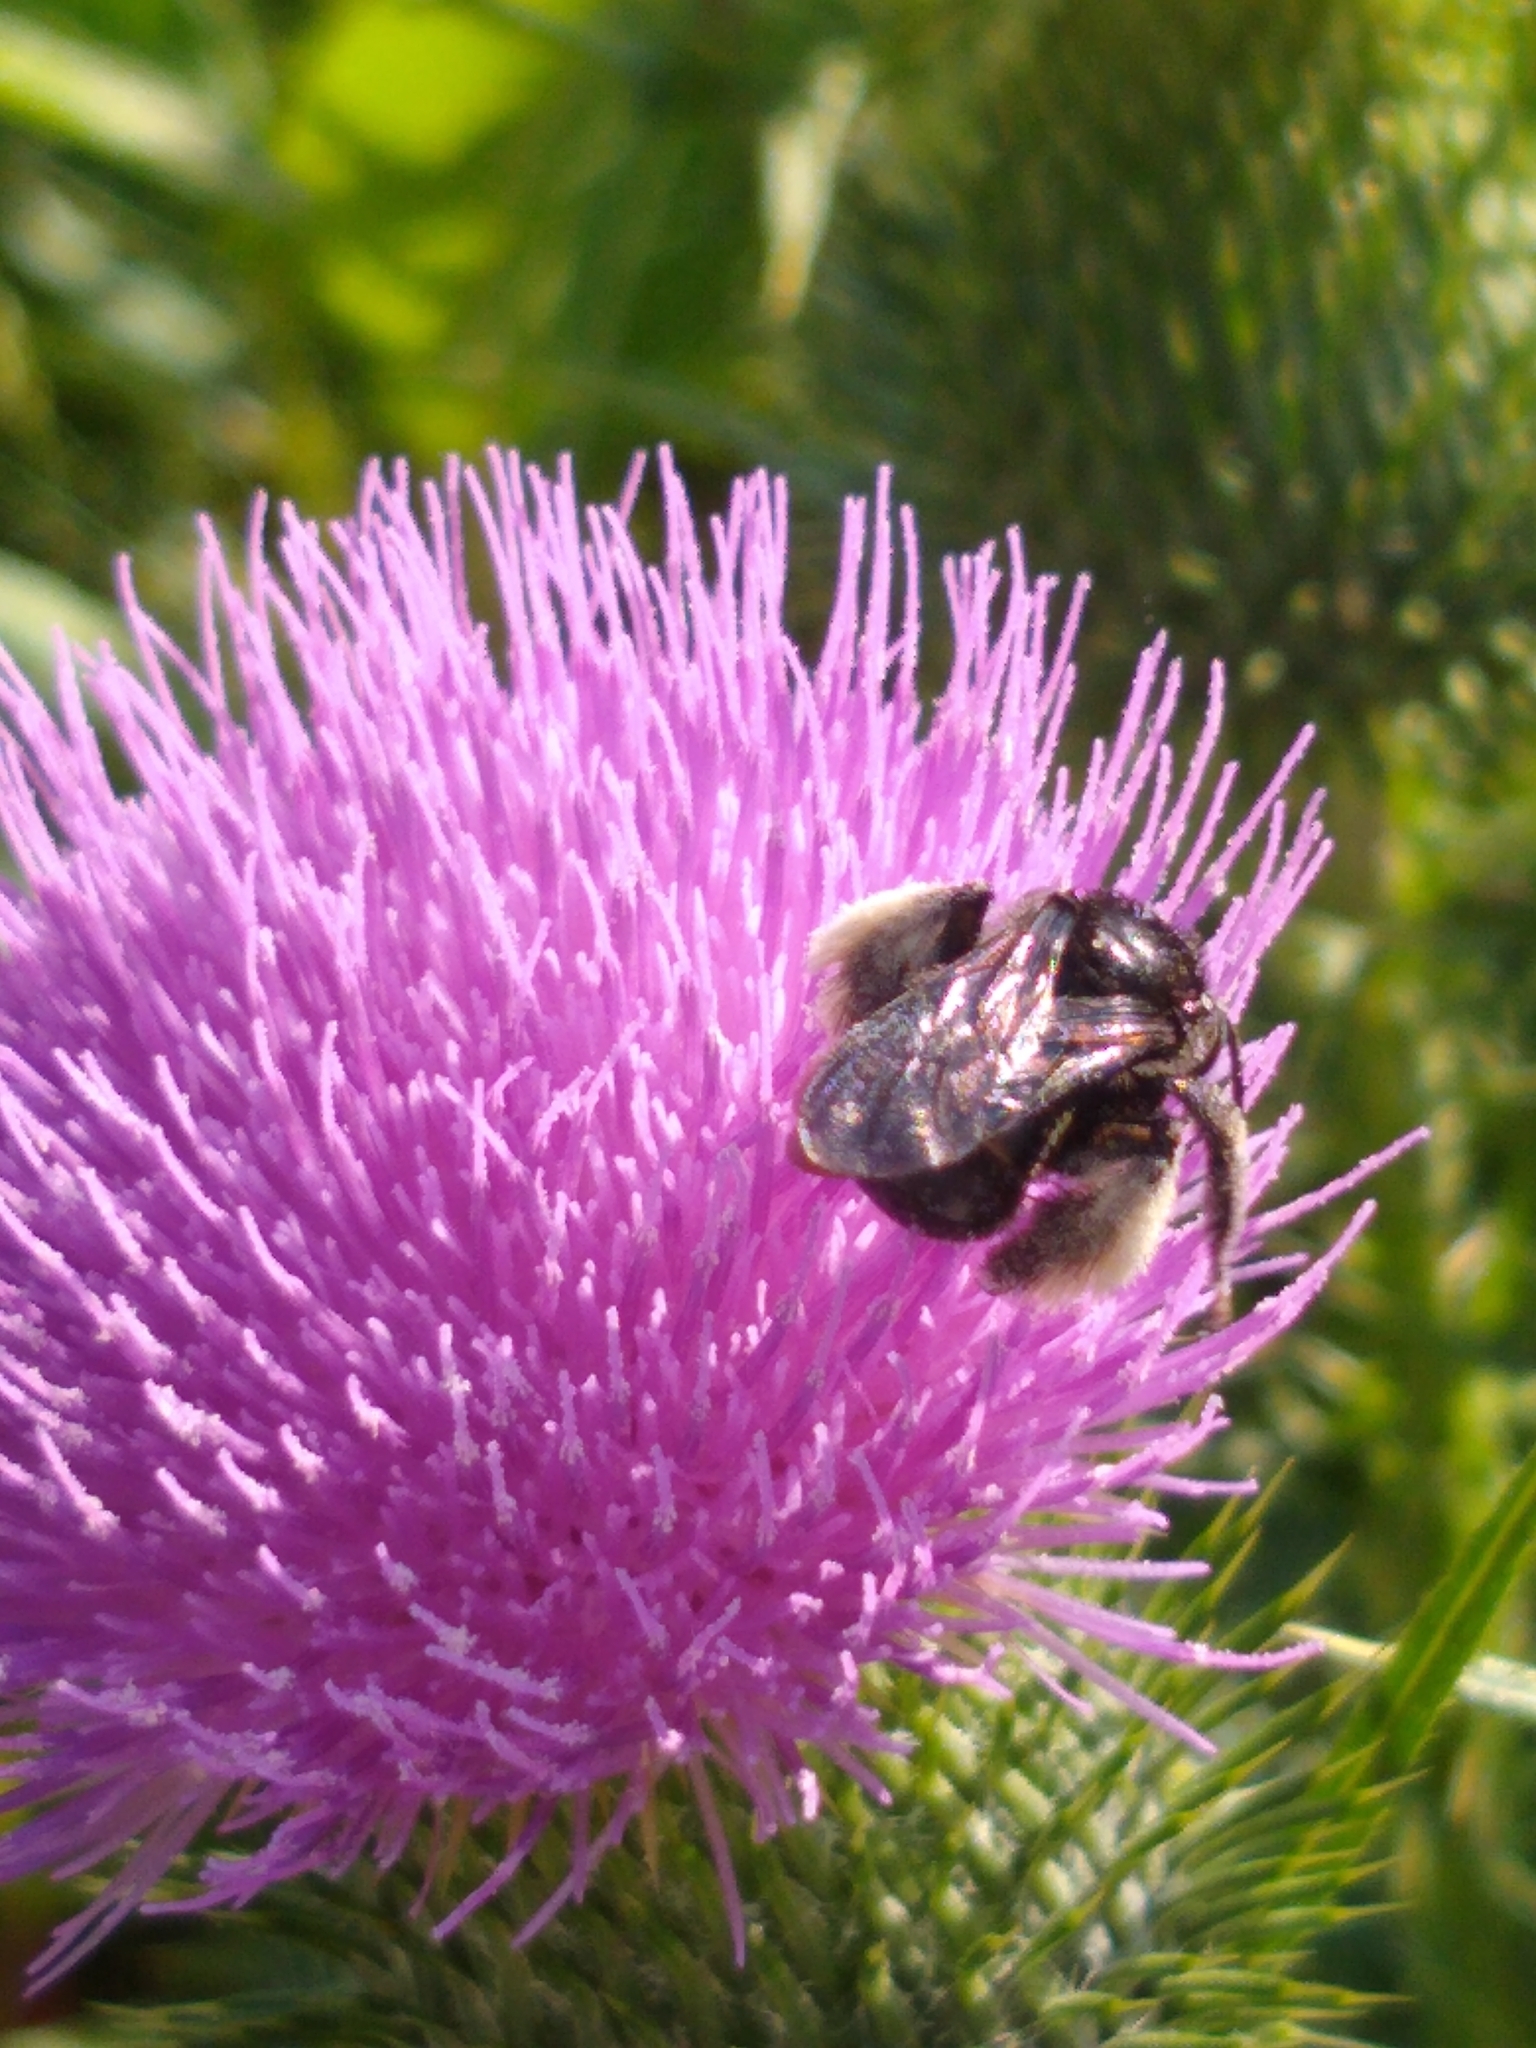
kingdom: Animalia
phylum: Arthropoda
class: Insecta
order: Hymenoptera
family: Apidae
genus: Melissodes
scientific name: Melissodes bimaculatus
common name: Two-spotted long-horned bee
